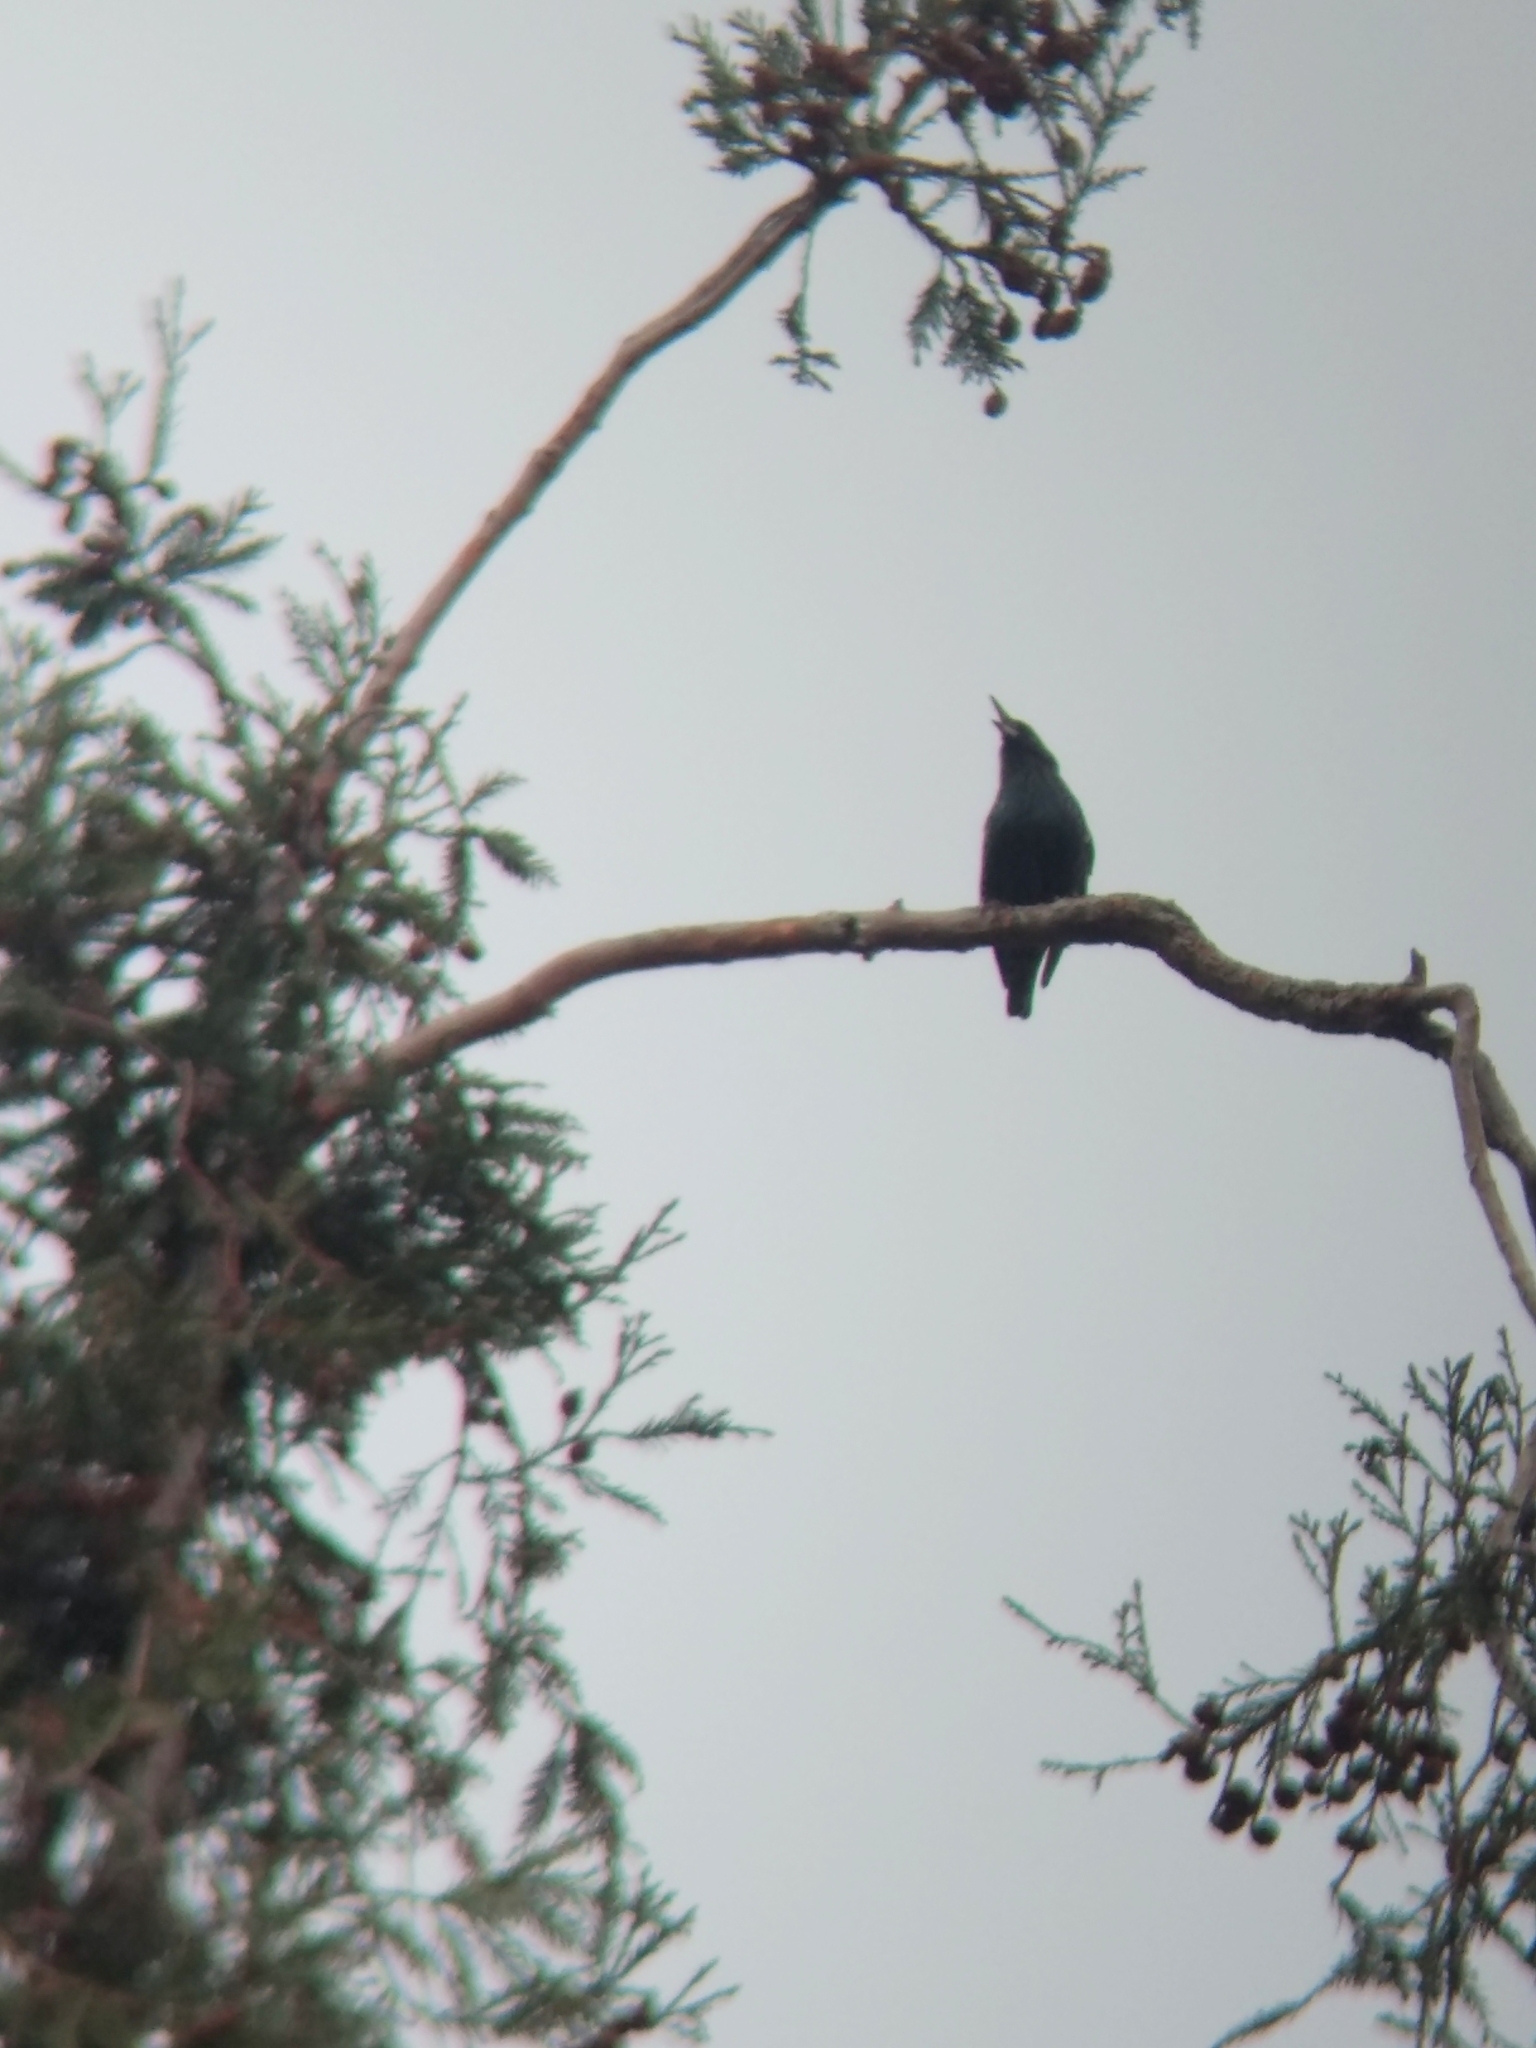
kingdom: Animalia
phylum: Chordata
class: Aves
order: Passeriformes
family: Sturnidae
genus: Sturnus
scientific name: Sturnus vulgaris
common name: Common starling
